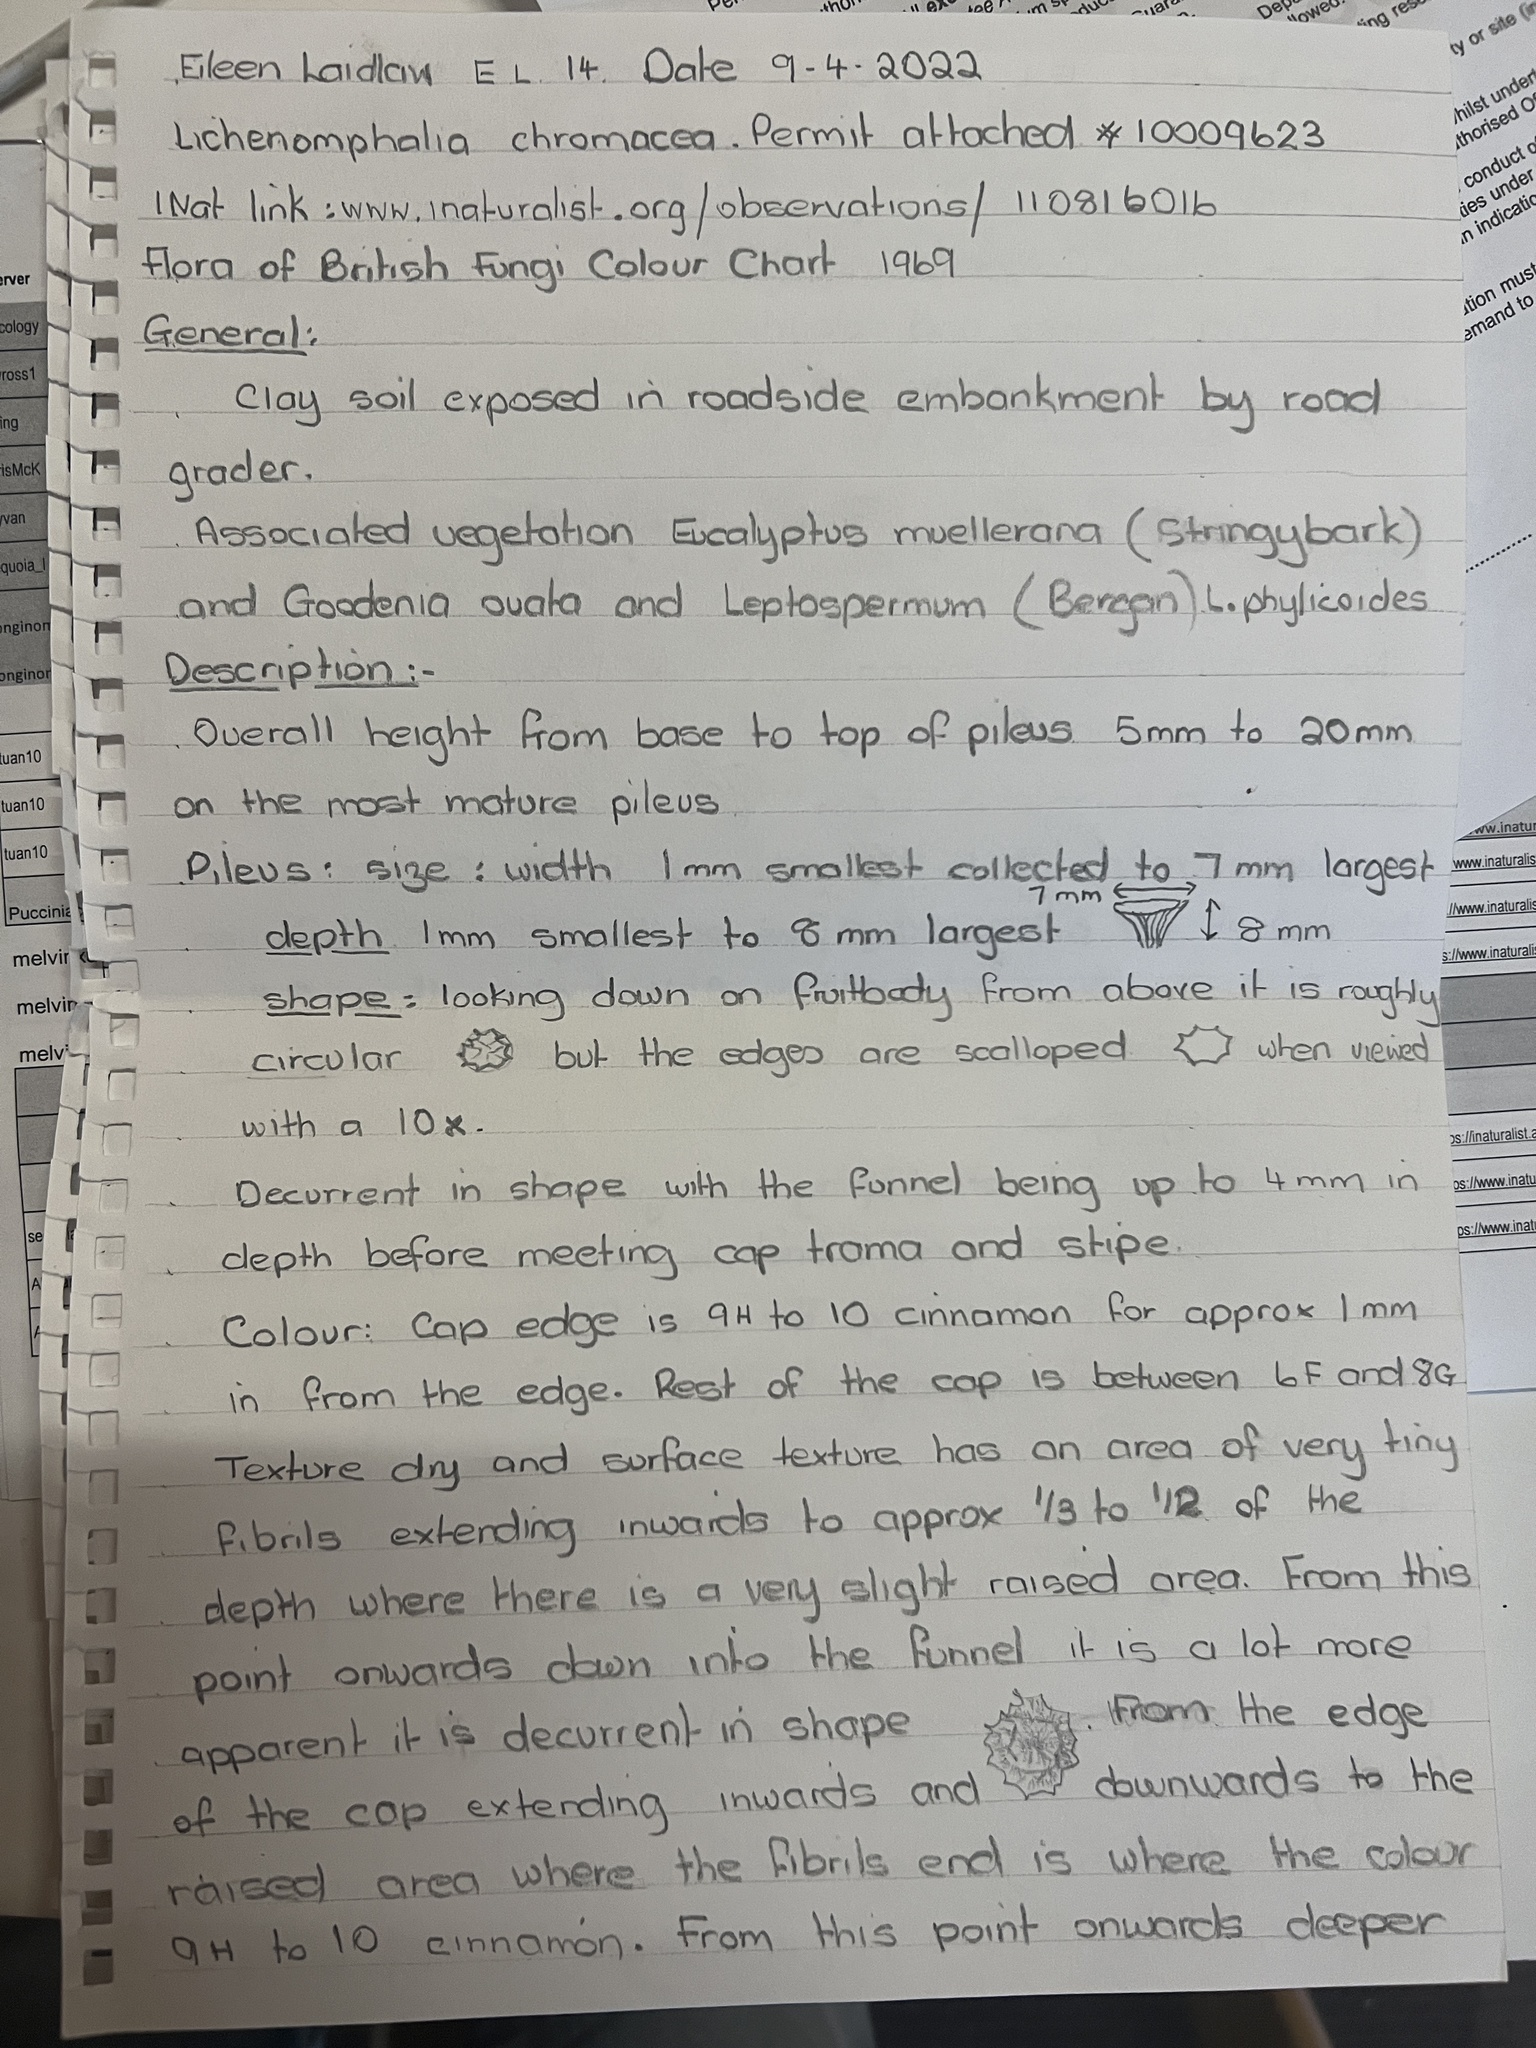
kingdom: Fungi
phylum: Basidiomycota
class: Agaricomycetes
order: Agaricales
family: Hygrophoraceae
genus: Lichenomphalia
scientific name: Lichenomphalia chromacea
